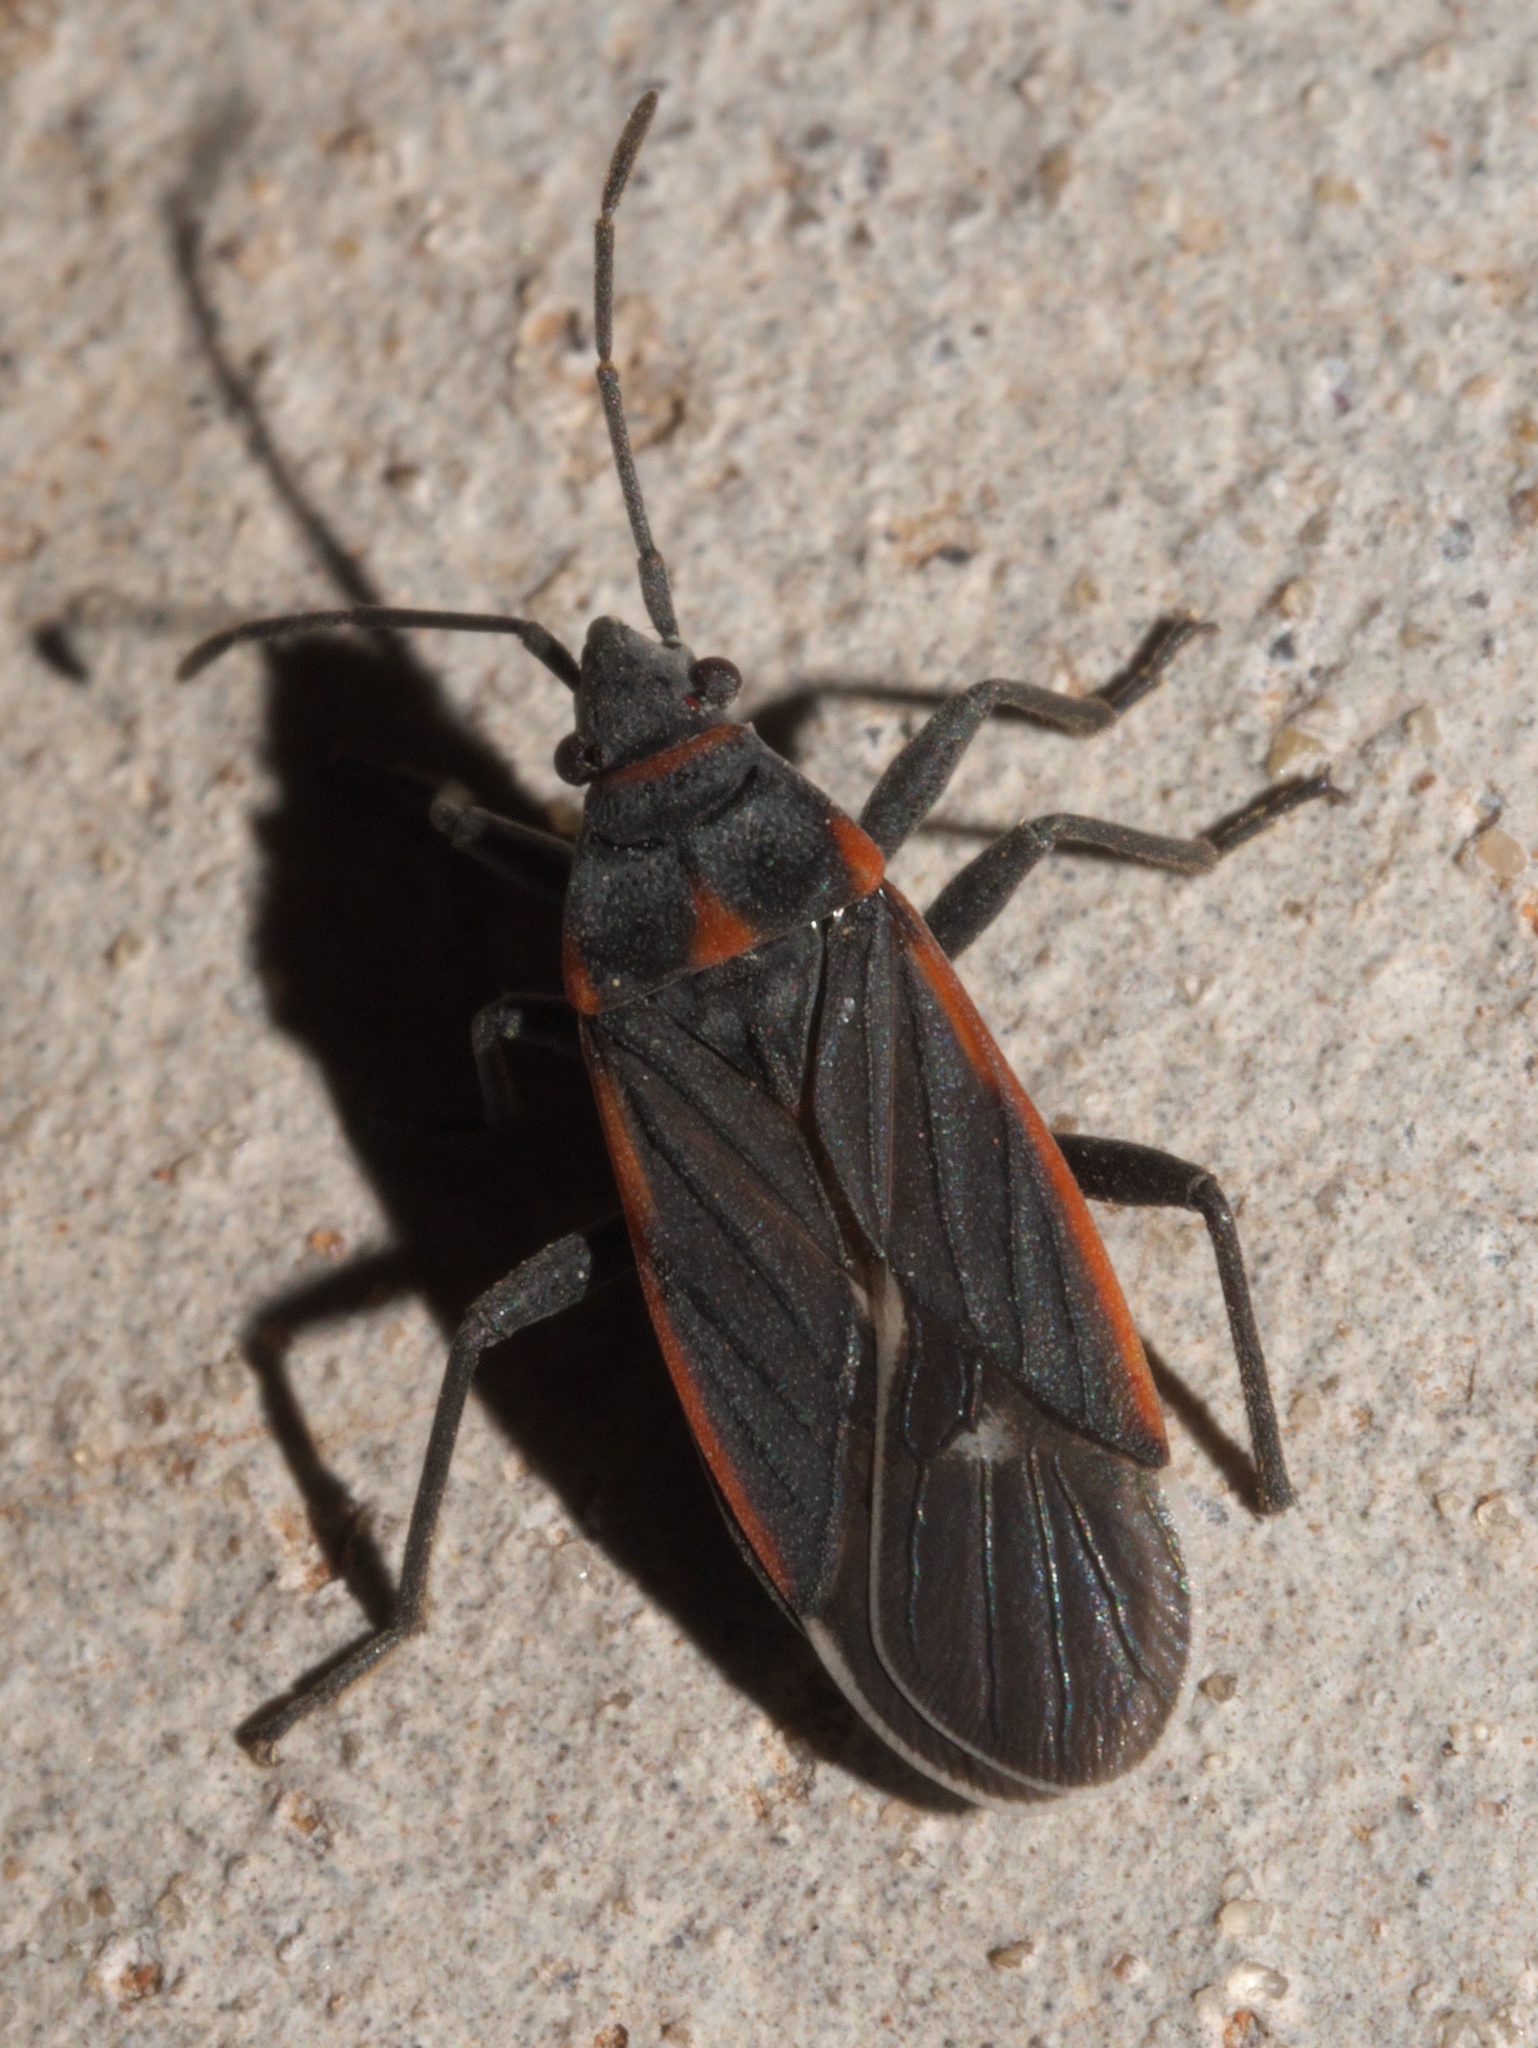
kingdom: Animalia
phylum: Arthropoda
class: Insecta
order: Hemiptera
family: Lygaeidae
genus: Melacoryphus
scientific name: Melacoryphus lateralis
